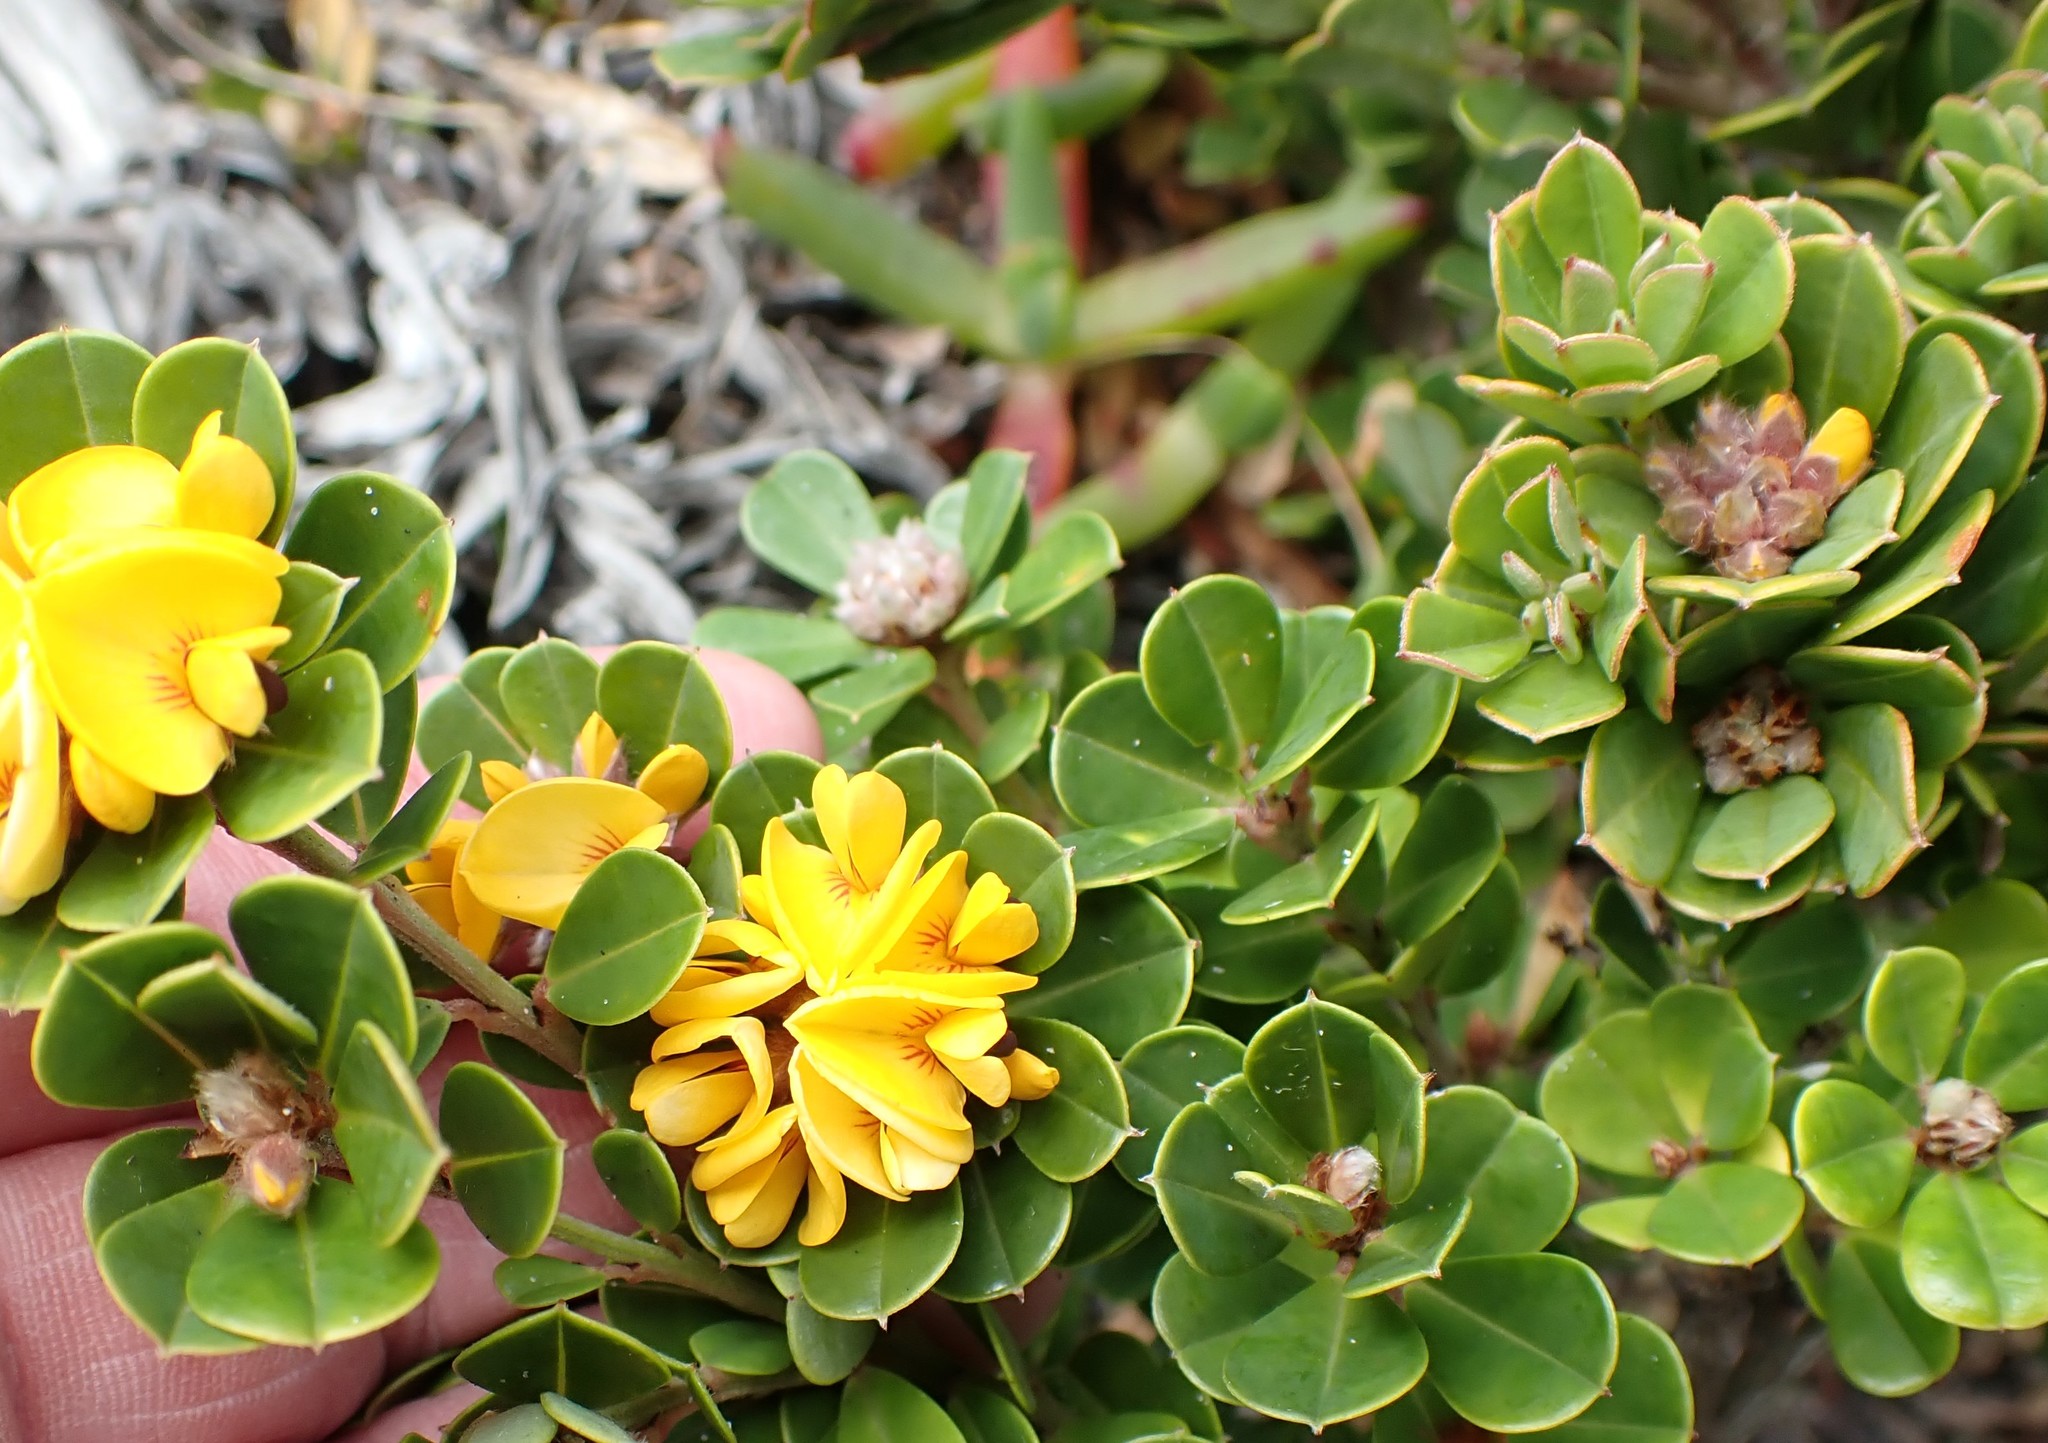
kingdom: Plantae
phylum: Tracheophyta
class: Magnoliopsida
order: Fabales
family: Fabaceae
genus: Pultenaea
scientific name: Pultenaea daphnoides
